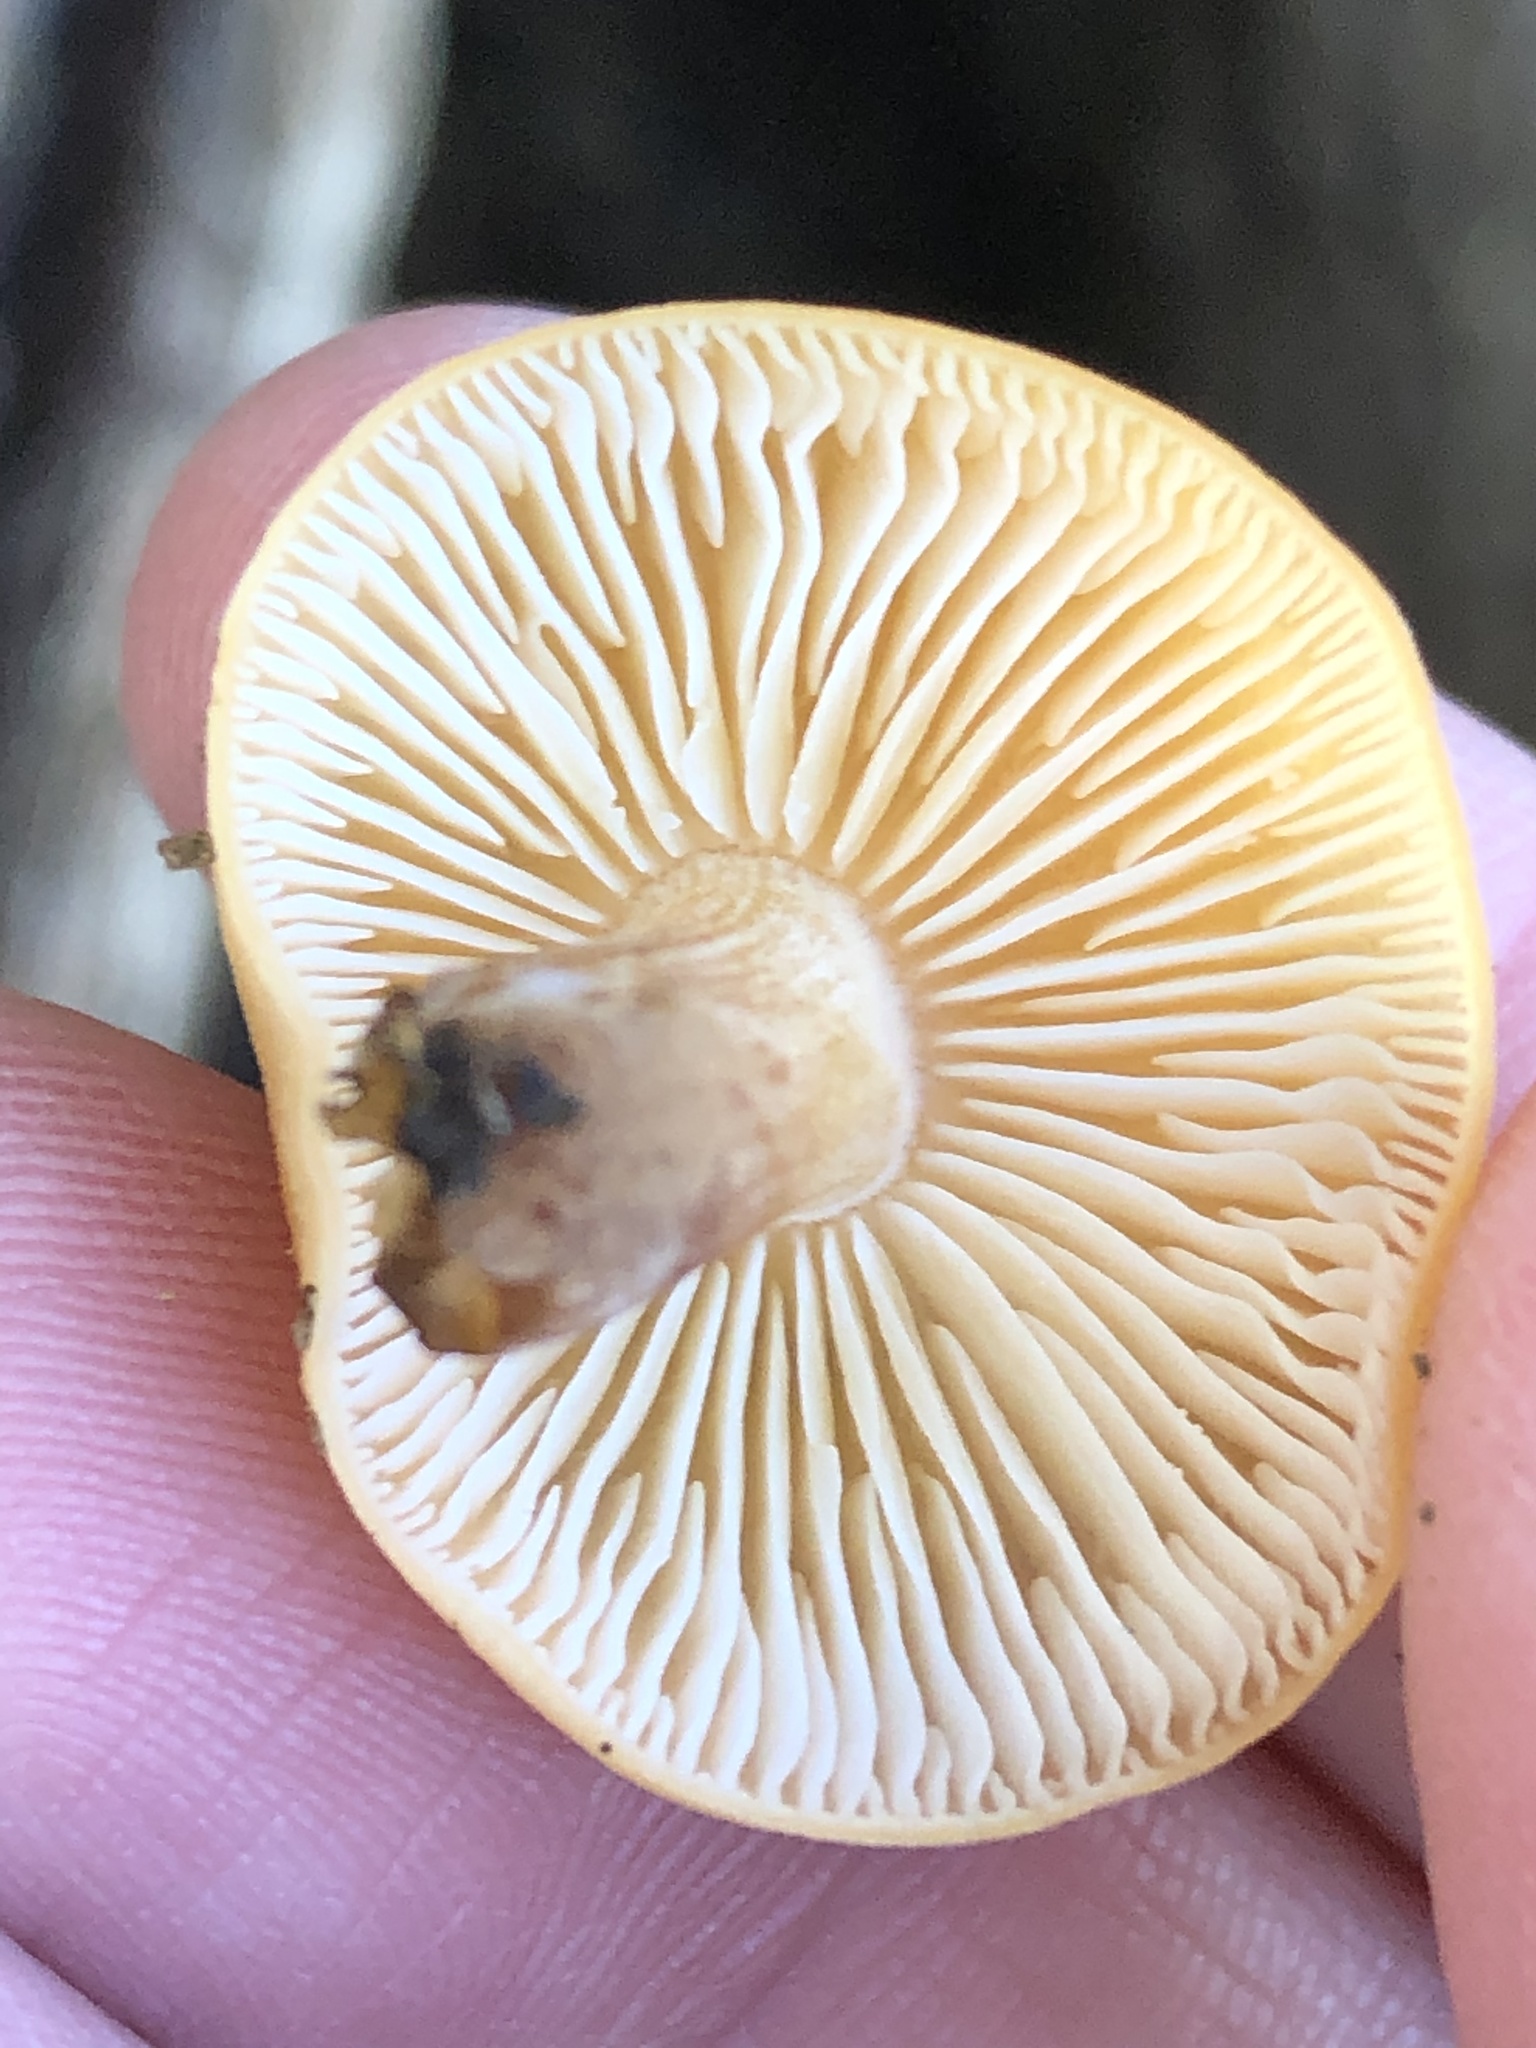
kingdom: Fungi
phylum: Basidiomycota
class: Agaricomycetes
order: Agaricales
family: Physalacriaceae
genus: Flammulina
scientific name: Flammulina velutipes
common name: Velvet shank
